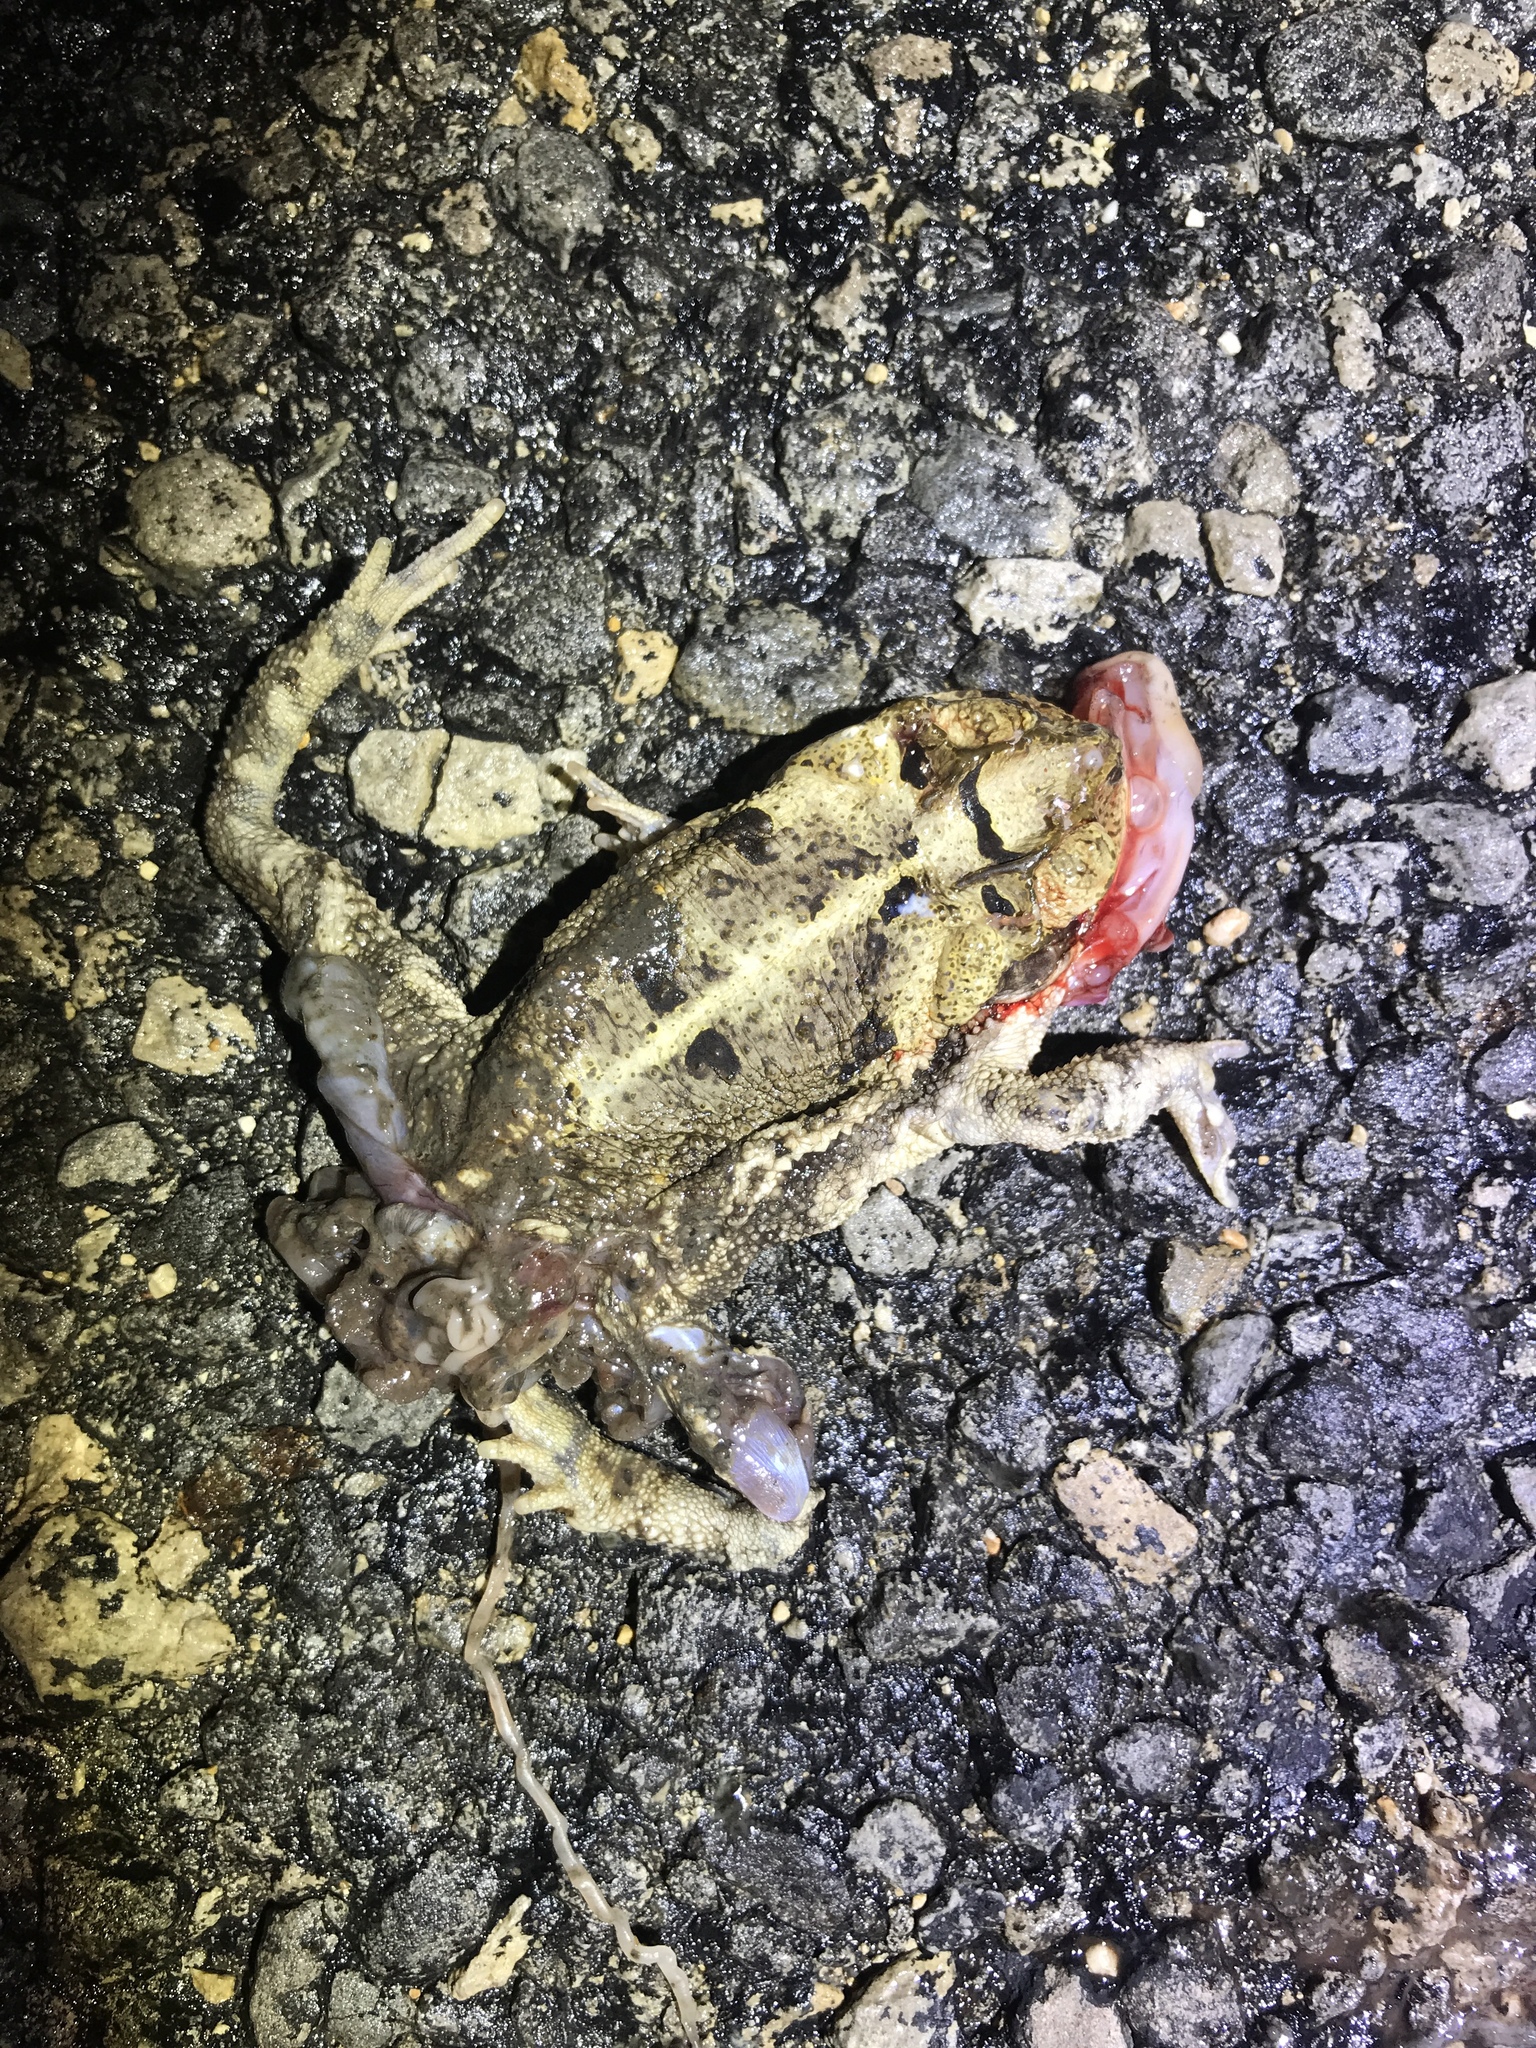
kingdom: Animalia
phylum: Chordata
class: Amphibia
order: Anura
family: Bufonidae
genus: Incilius
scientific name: Incilius nebulifer
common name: Gulf coast toad
